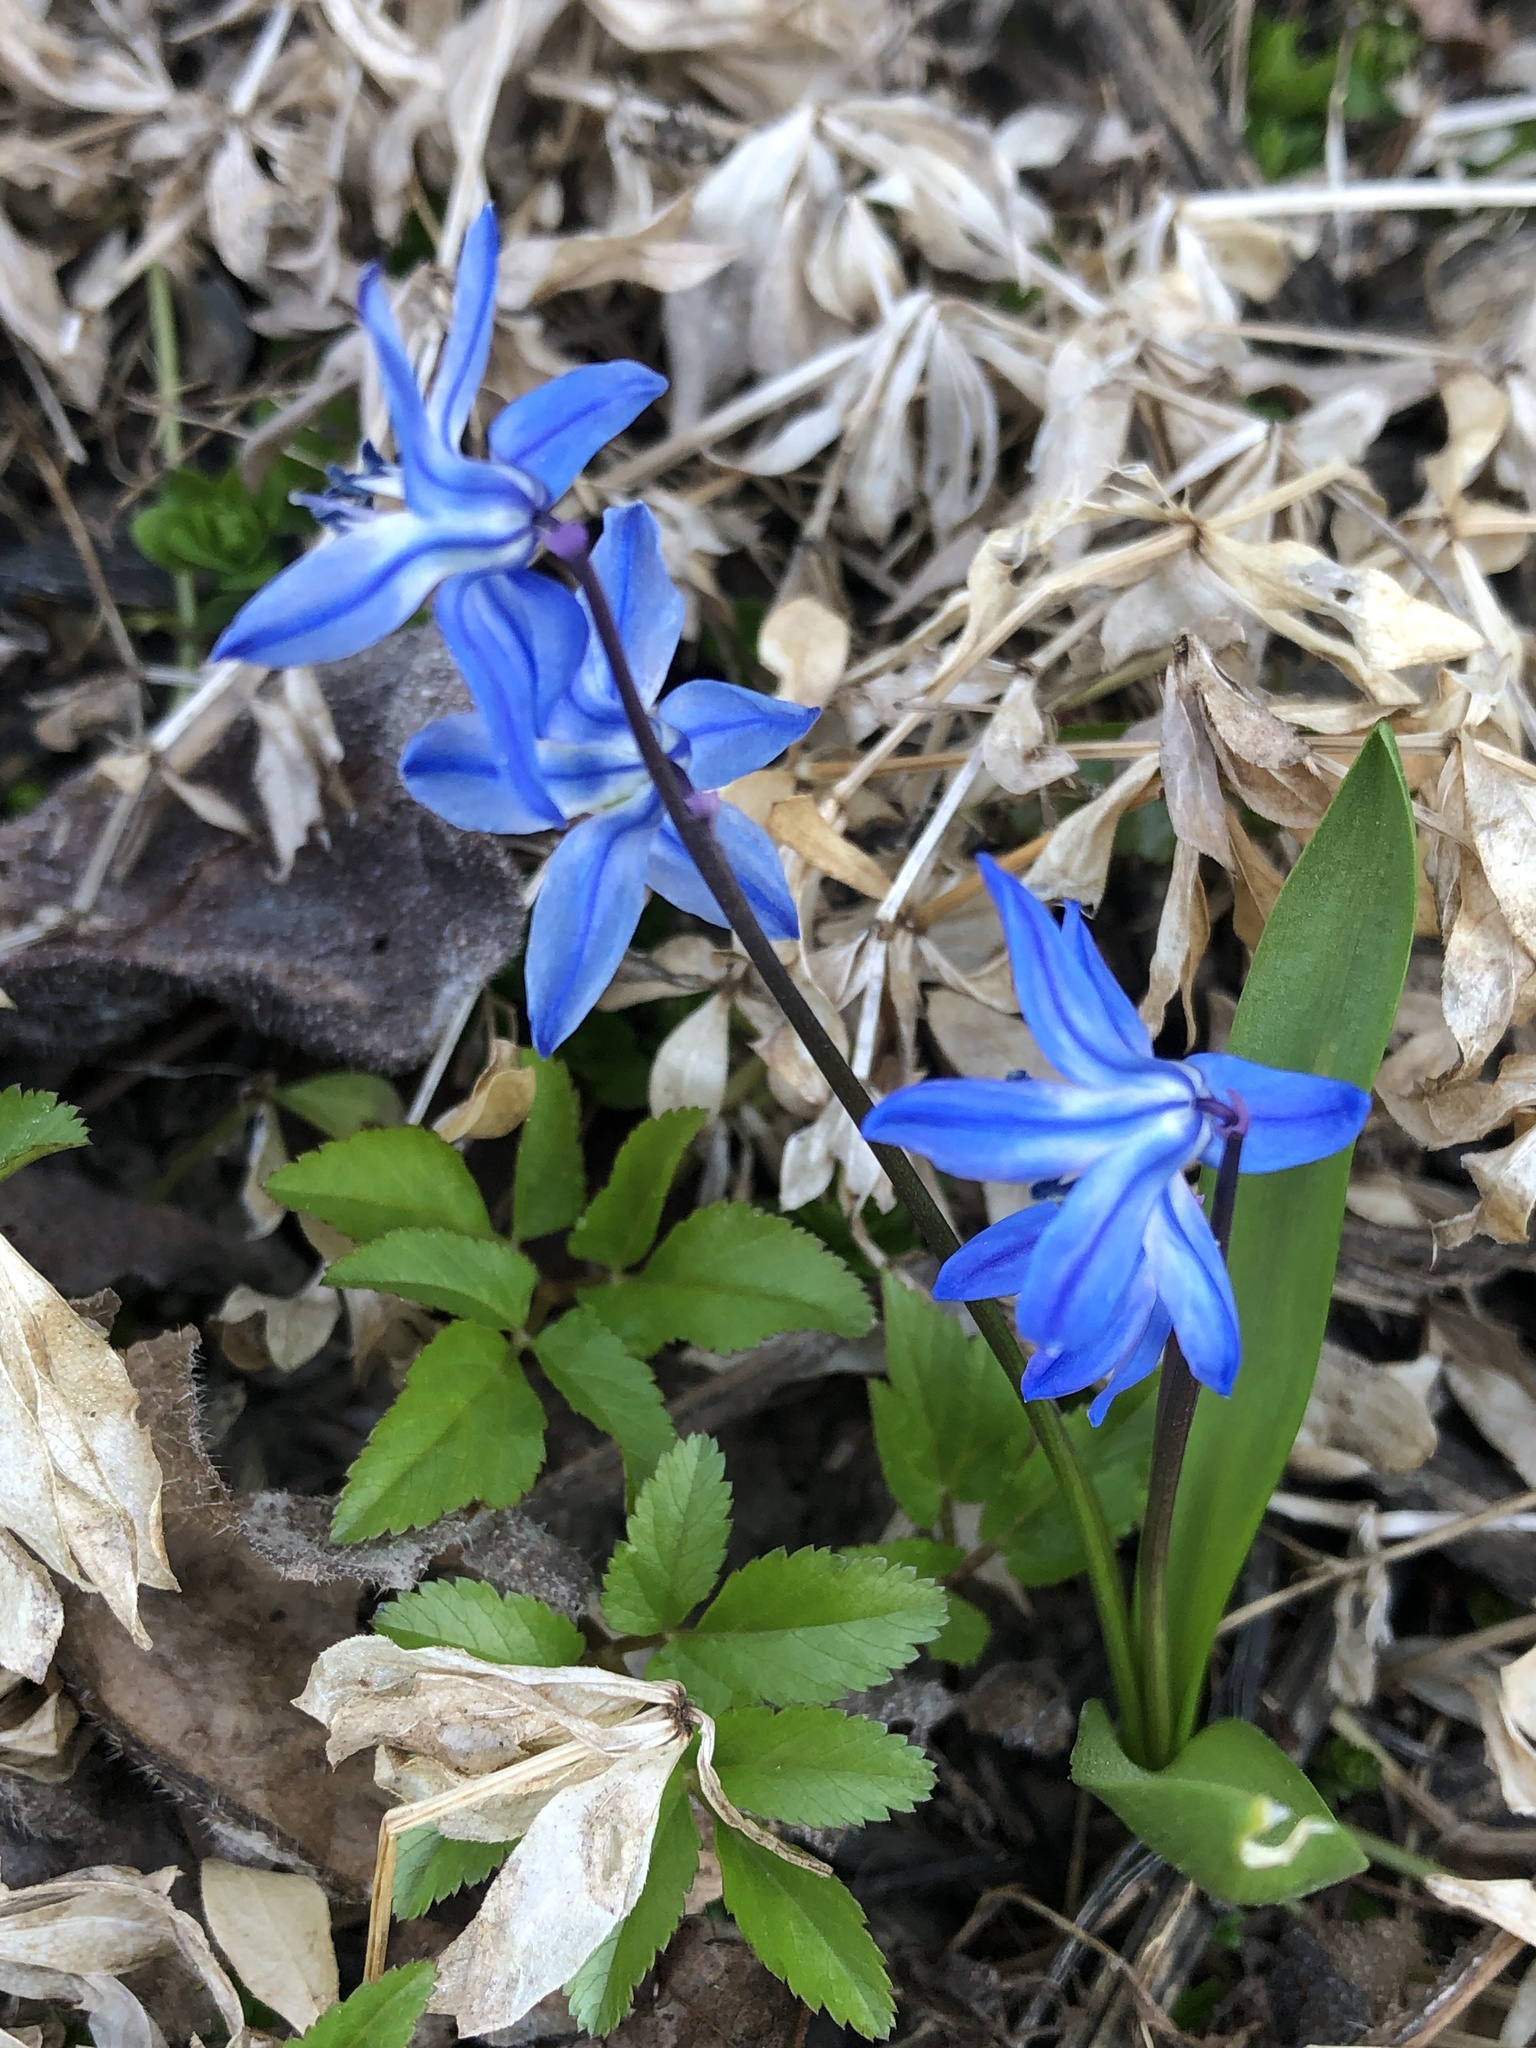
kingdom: Plantae
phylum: Tracheophyta
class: Liliopsida
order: Asparagales
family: Asparagaceae
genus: Scilla
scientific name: Scilla siberica
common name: Siberian squill
